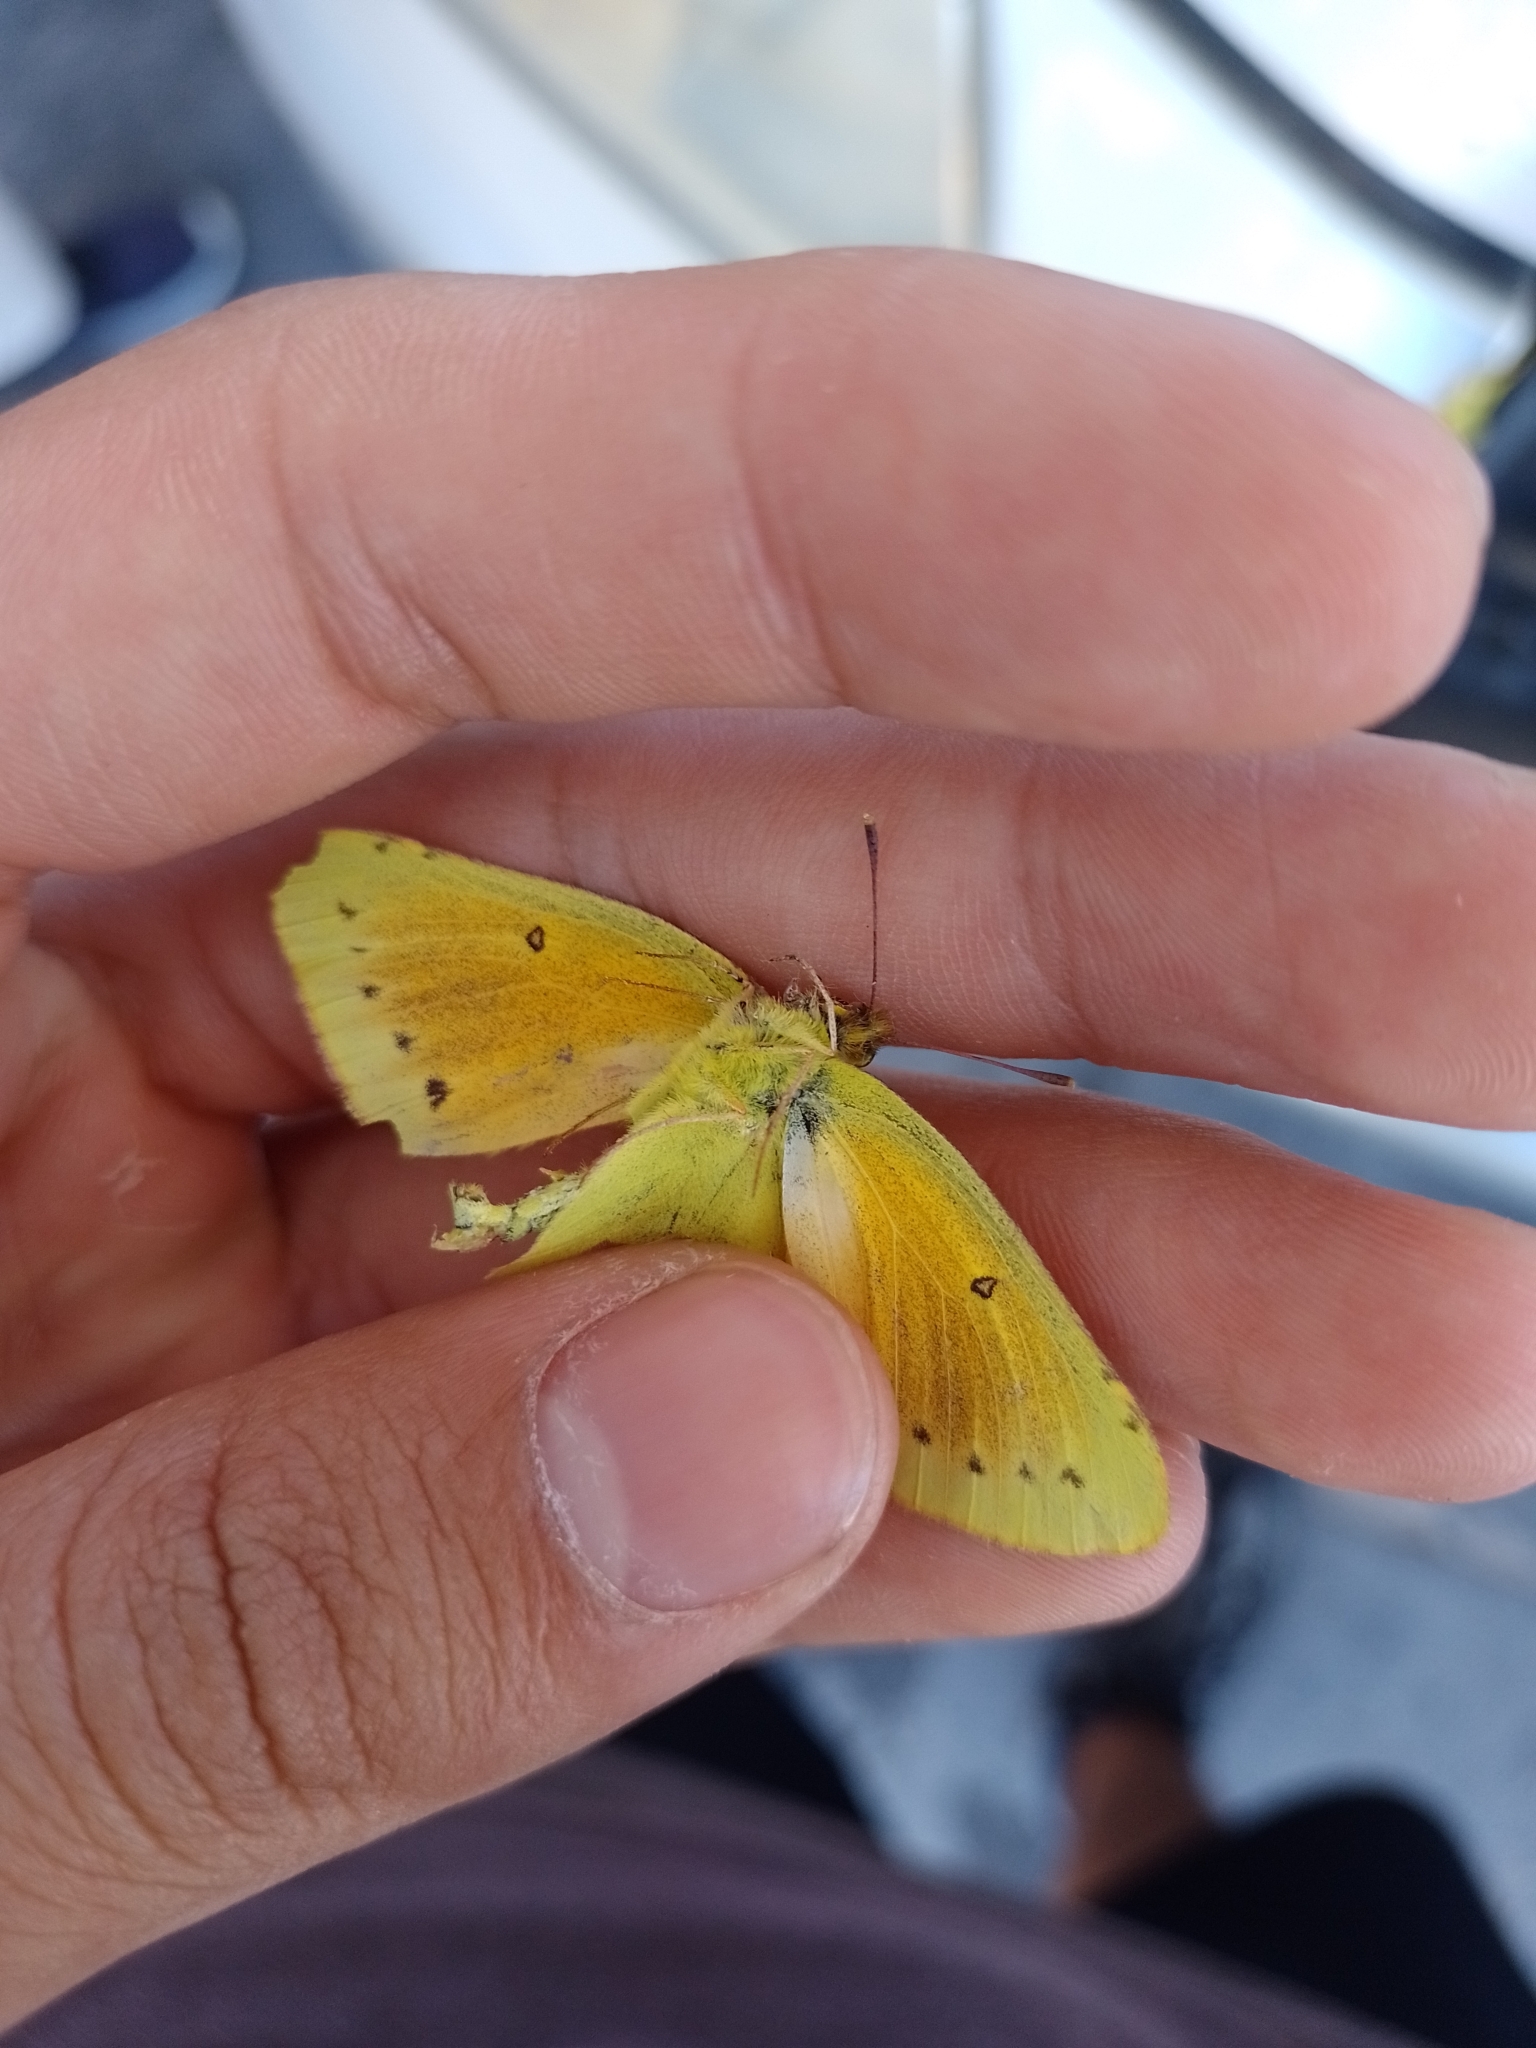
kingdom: Animalia
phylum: Arthropoda
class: Insecta
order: Lepidoptera
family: Pieridae
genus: Colias
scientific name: Colias lesbia
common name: Lesbia clouded yellow
